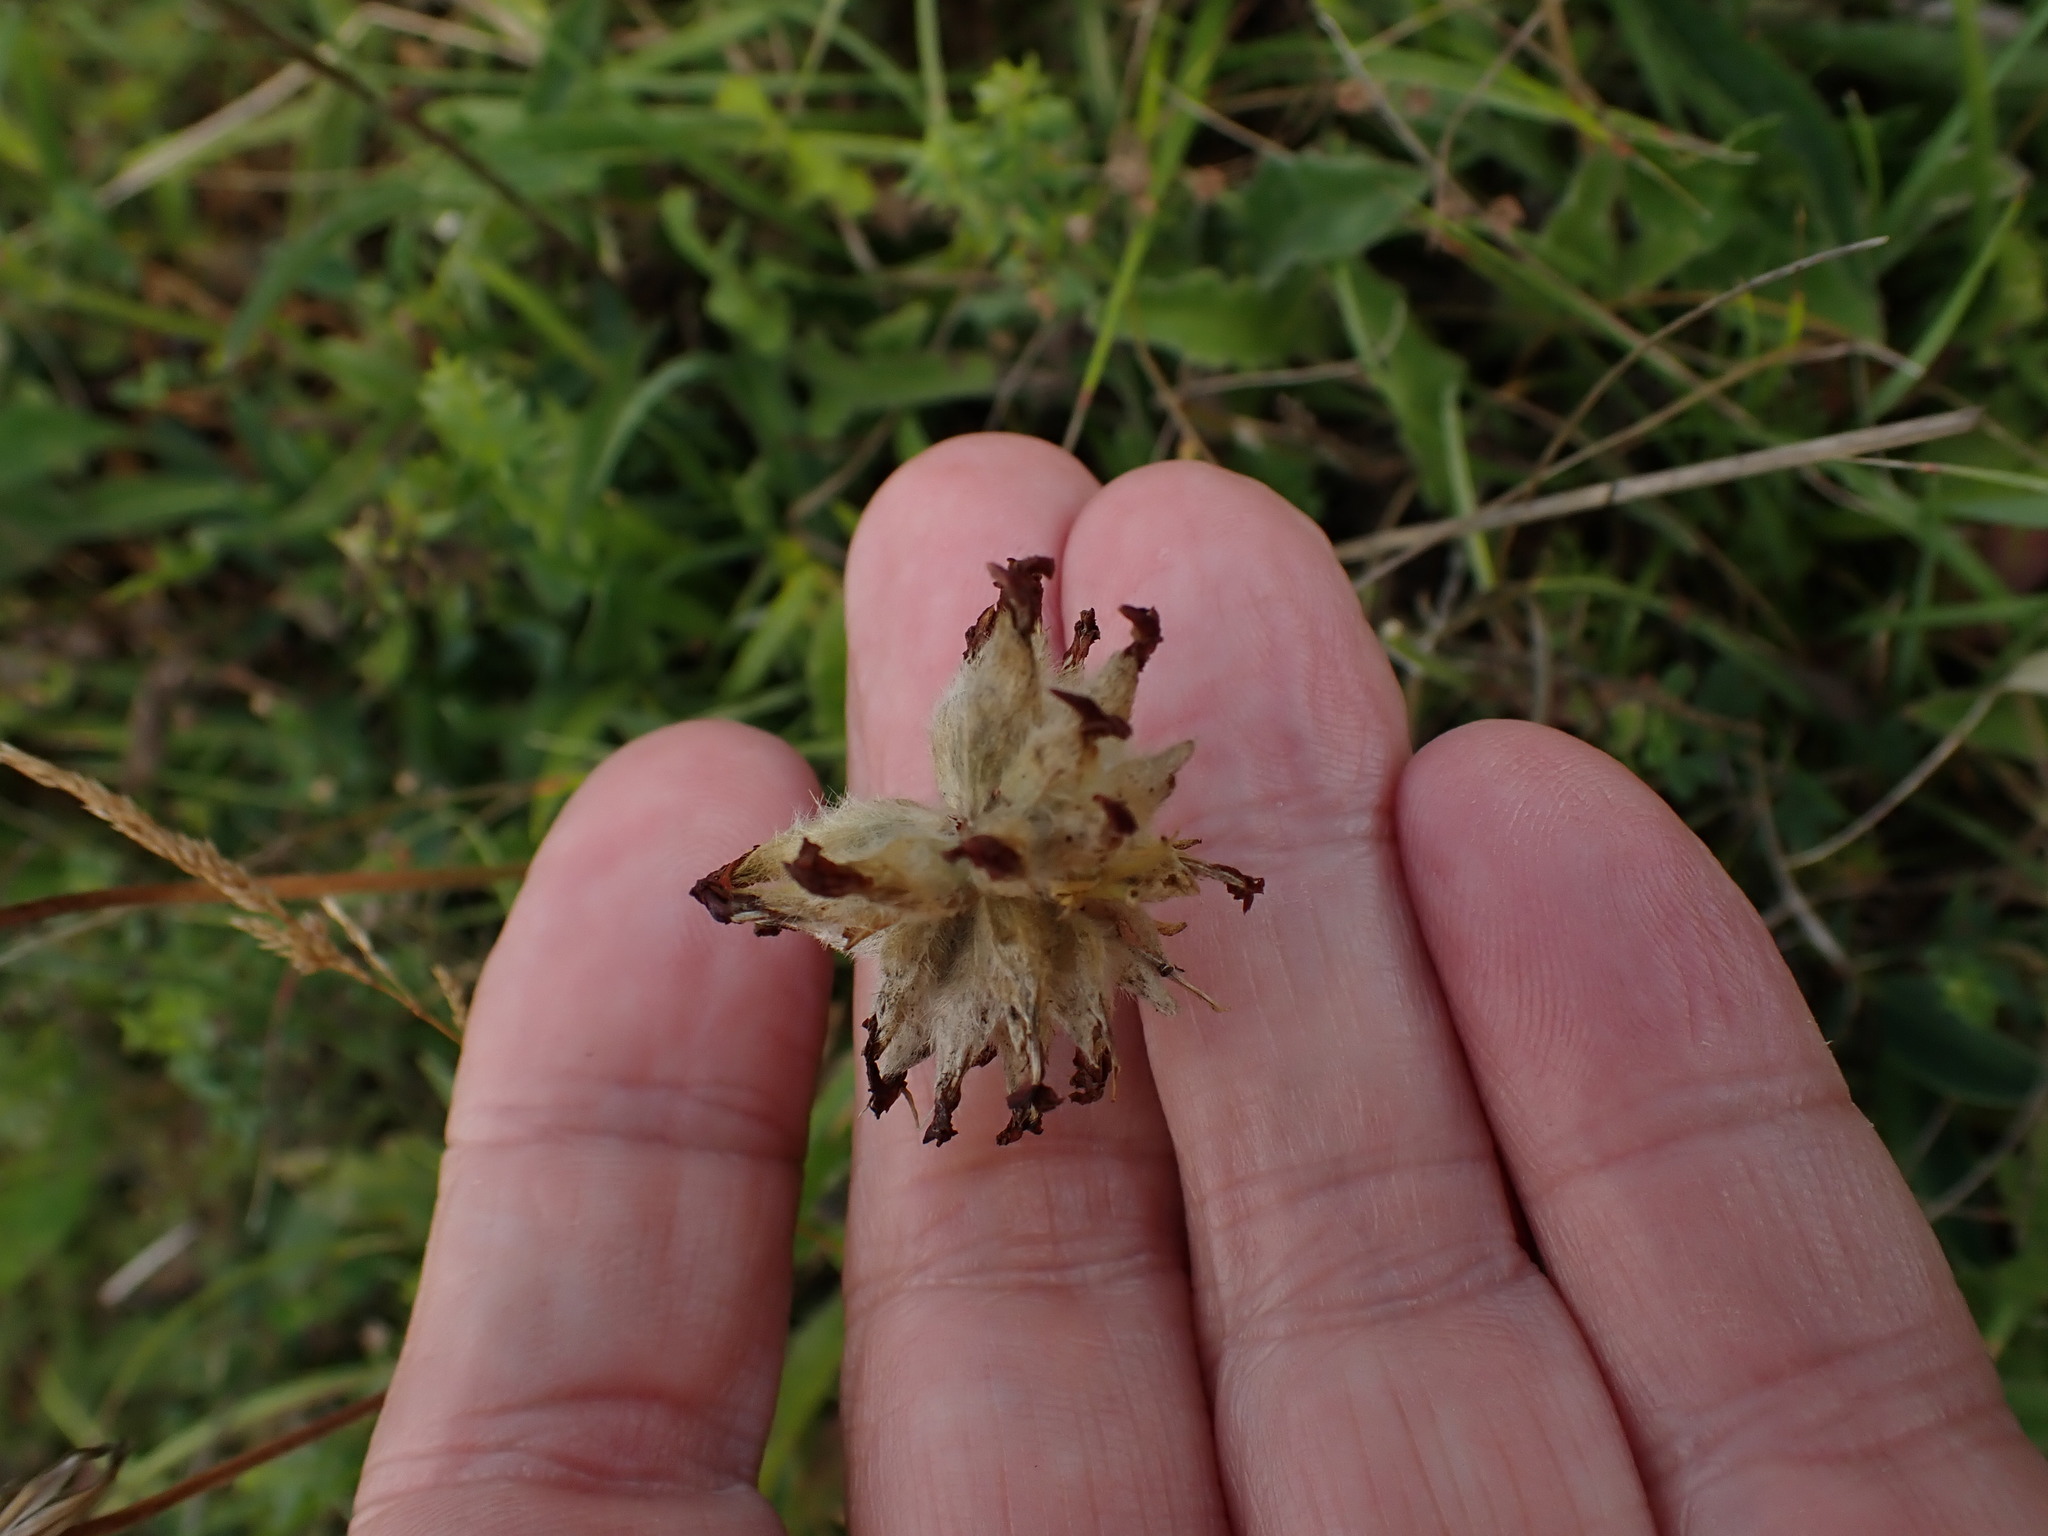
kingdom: Plantae
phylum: Tracheophyta
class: Magnoliopsida
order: Fabales
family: Fabaceae
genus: Anthyllis
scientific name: Anthyllis vulneraria
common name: Kidney vetch
